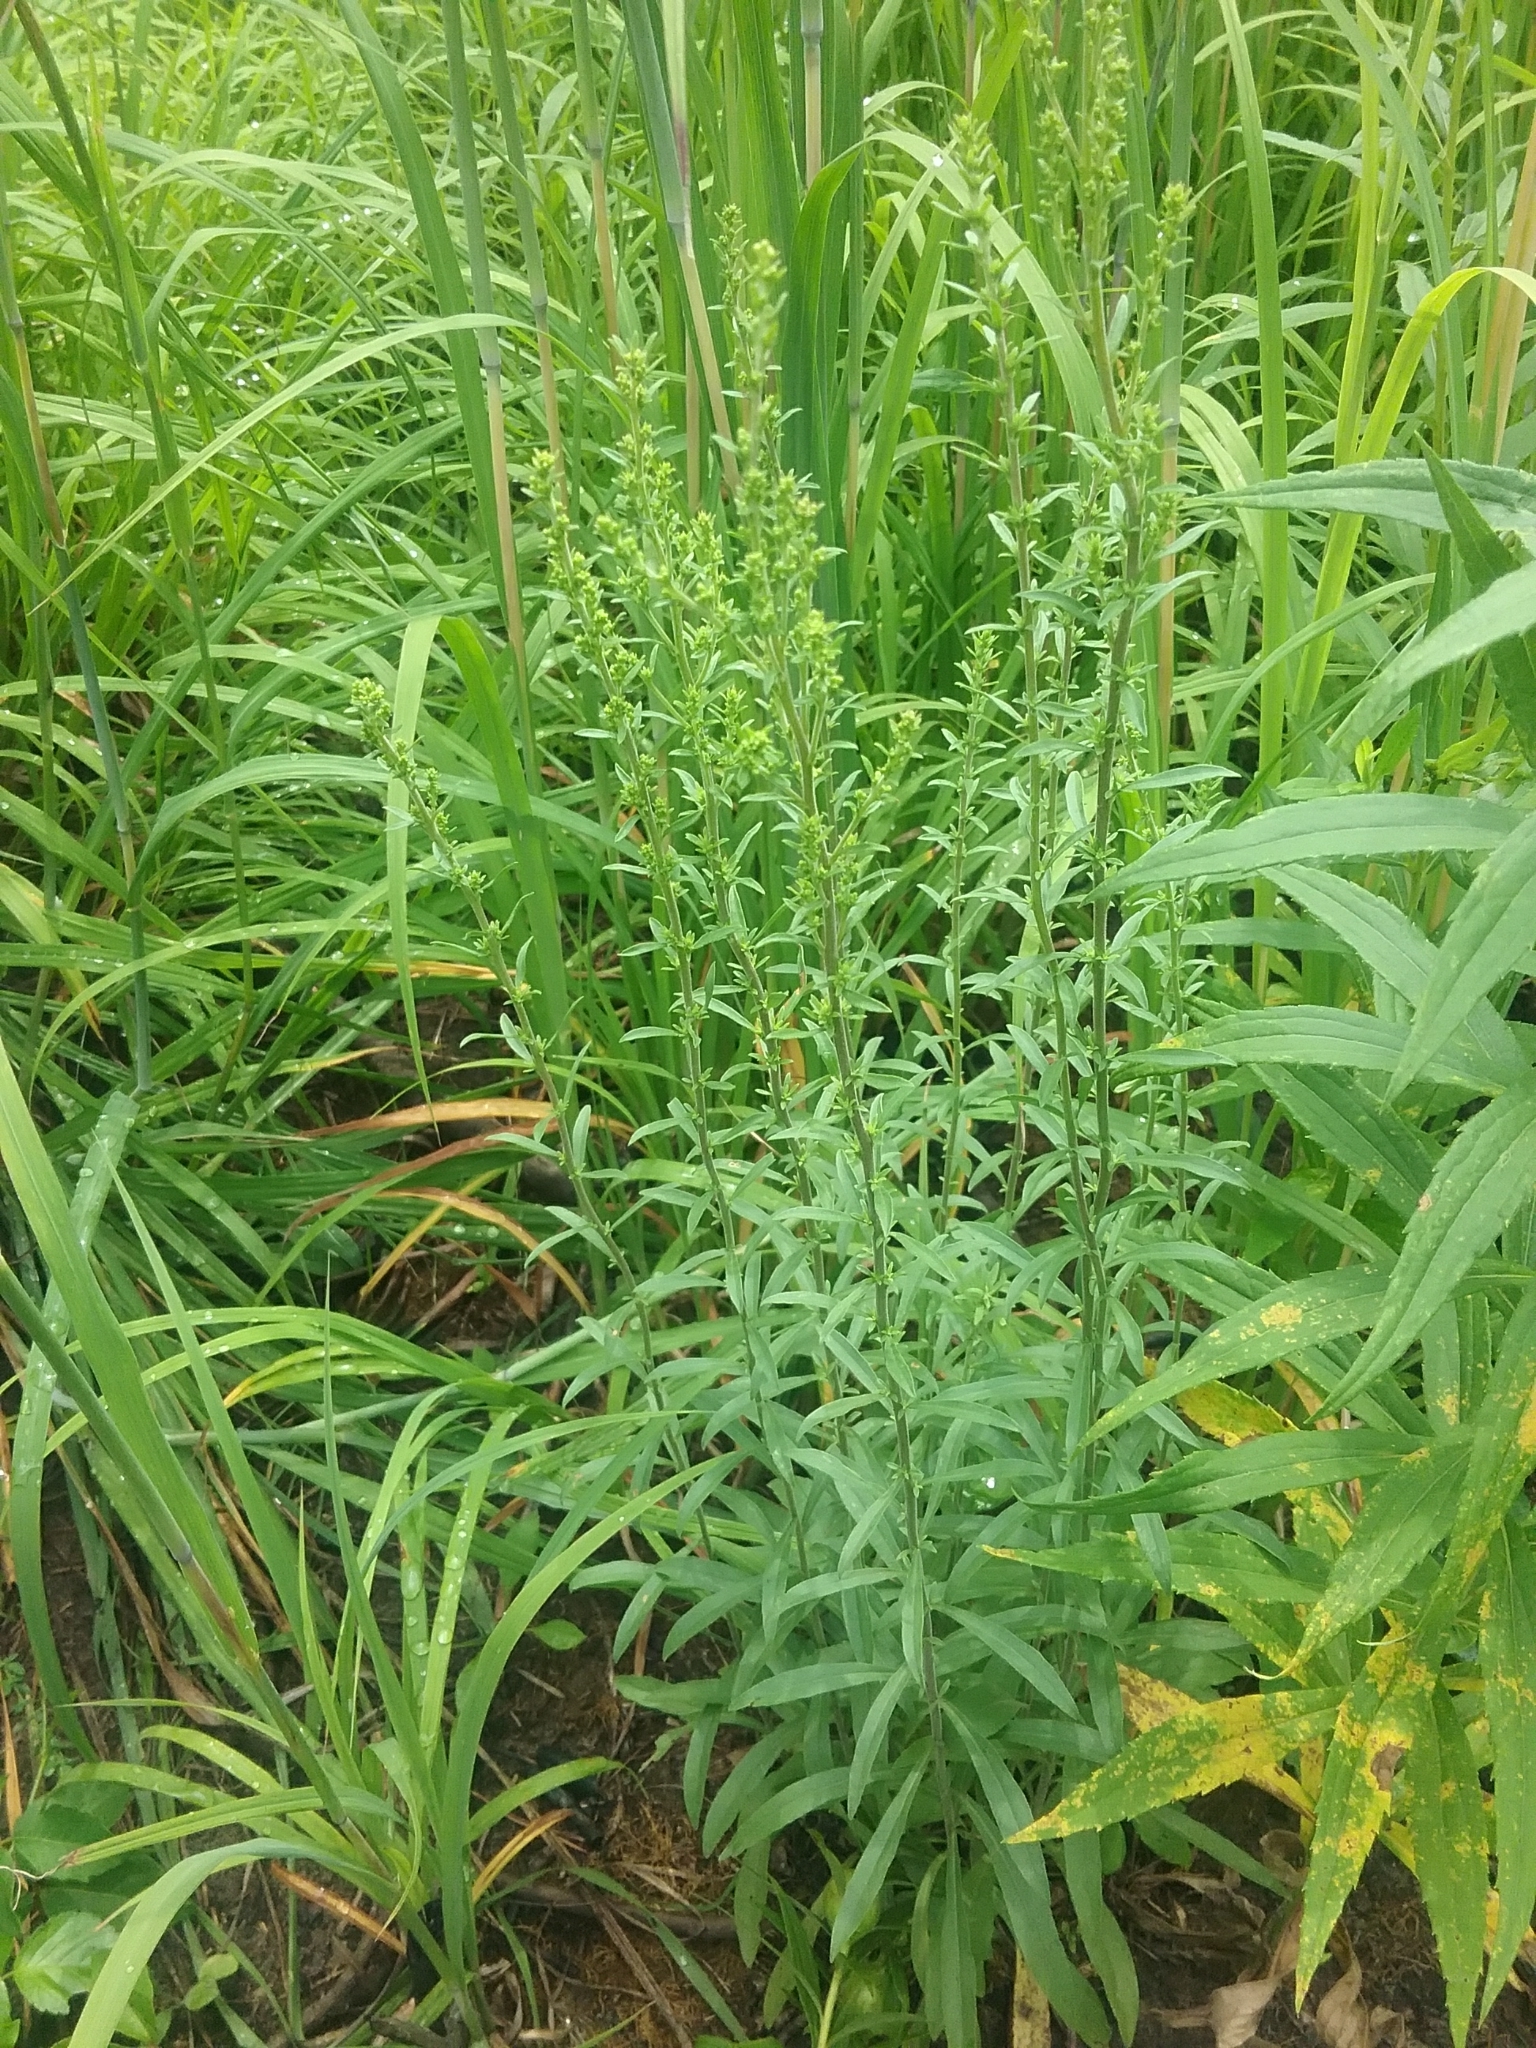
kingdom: Plantae
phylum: Tracheophyta
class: Magnoliopsida
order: Asterales
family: Asteraceae
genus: Solidago
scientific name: Solidago nemoralis
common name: Grey goldenrod
